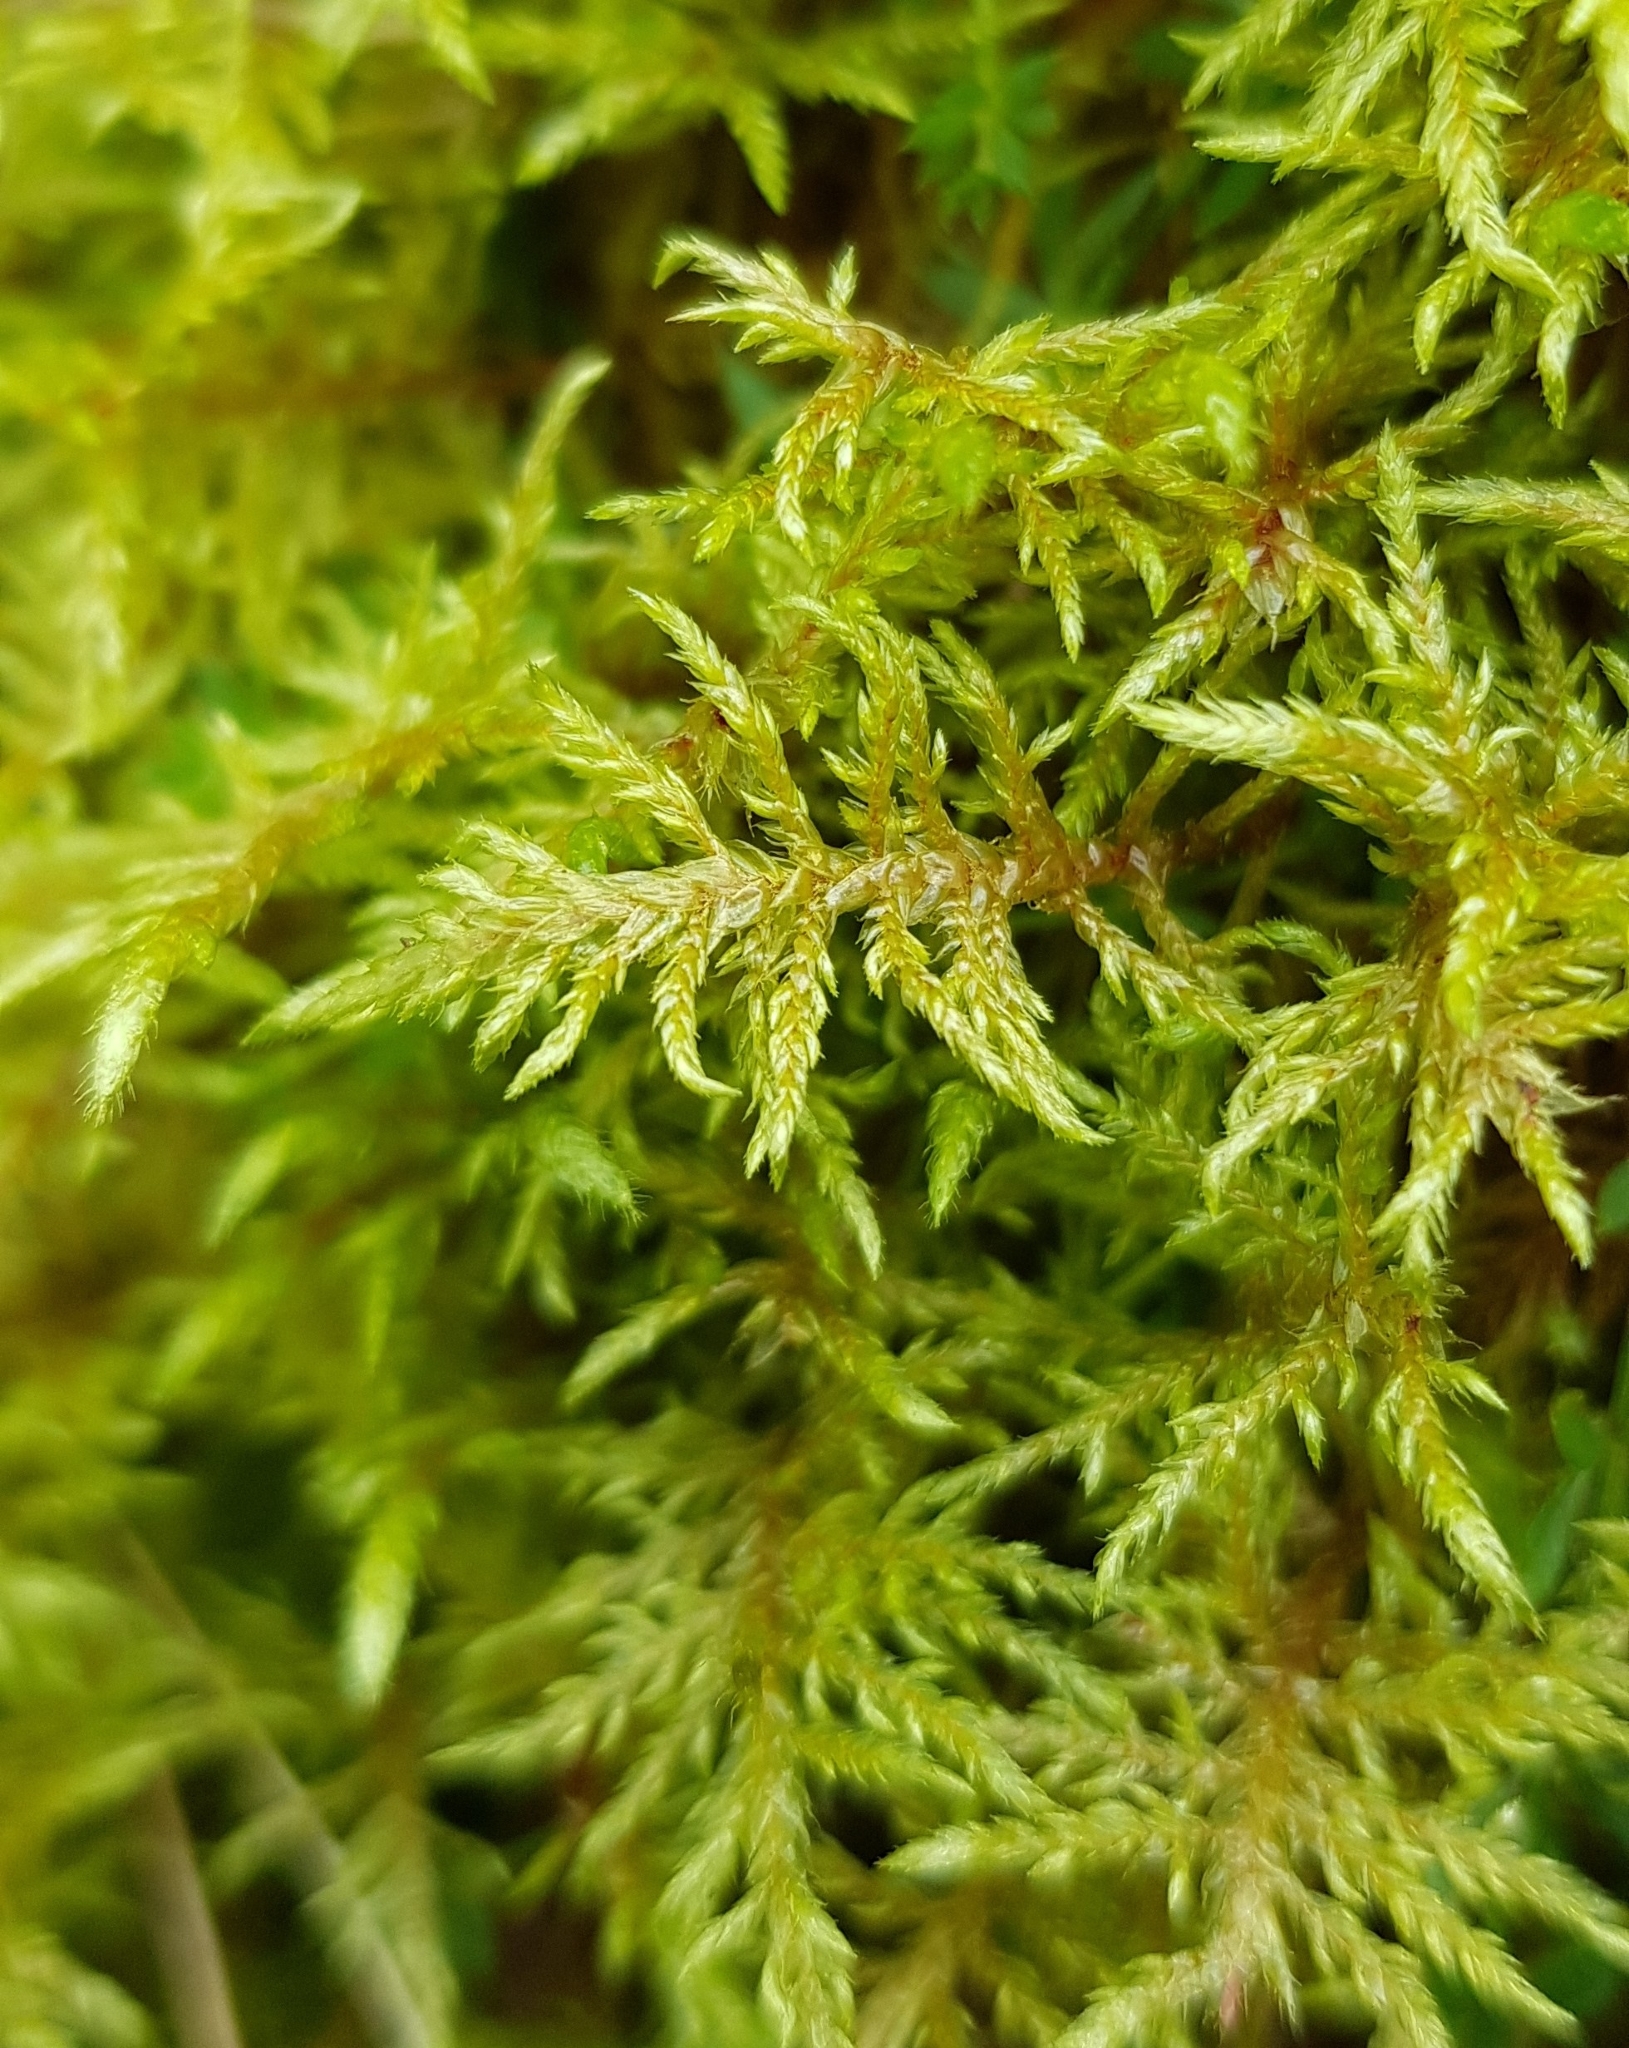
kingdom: Plantae
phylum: Bryophyta
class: Bryopsida
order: Hypnales
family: Hylocomiaceae
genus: Hylocomium
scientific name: Hylocomium splendens
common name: Stairstep moss
